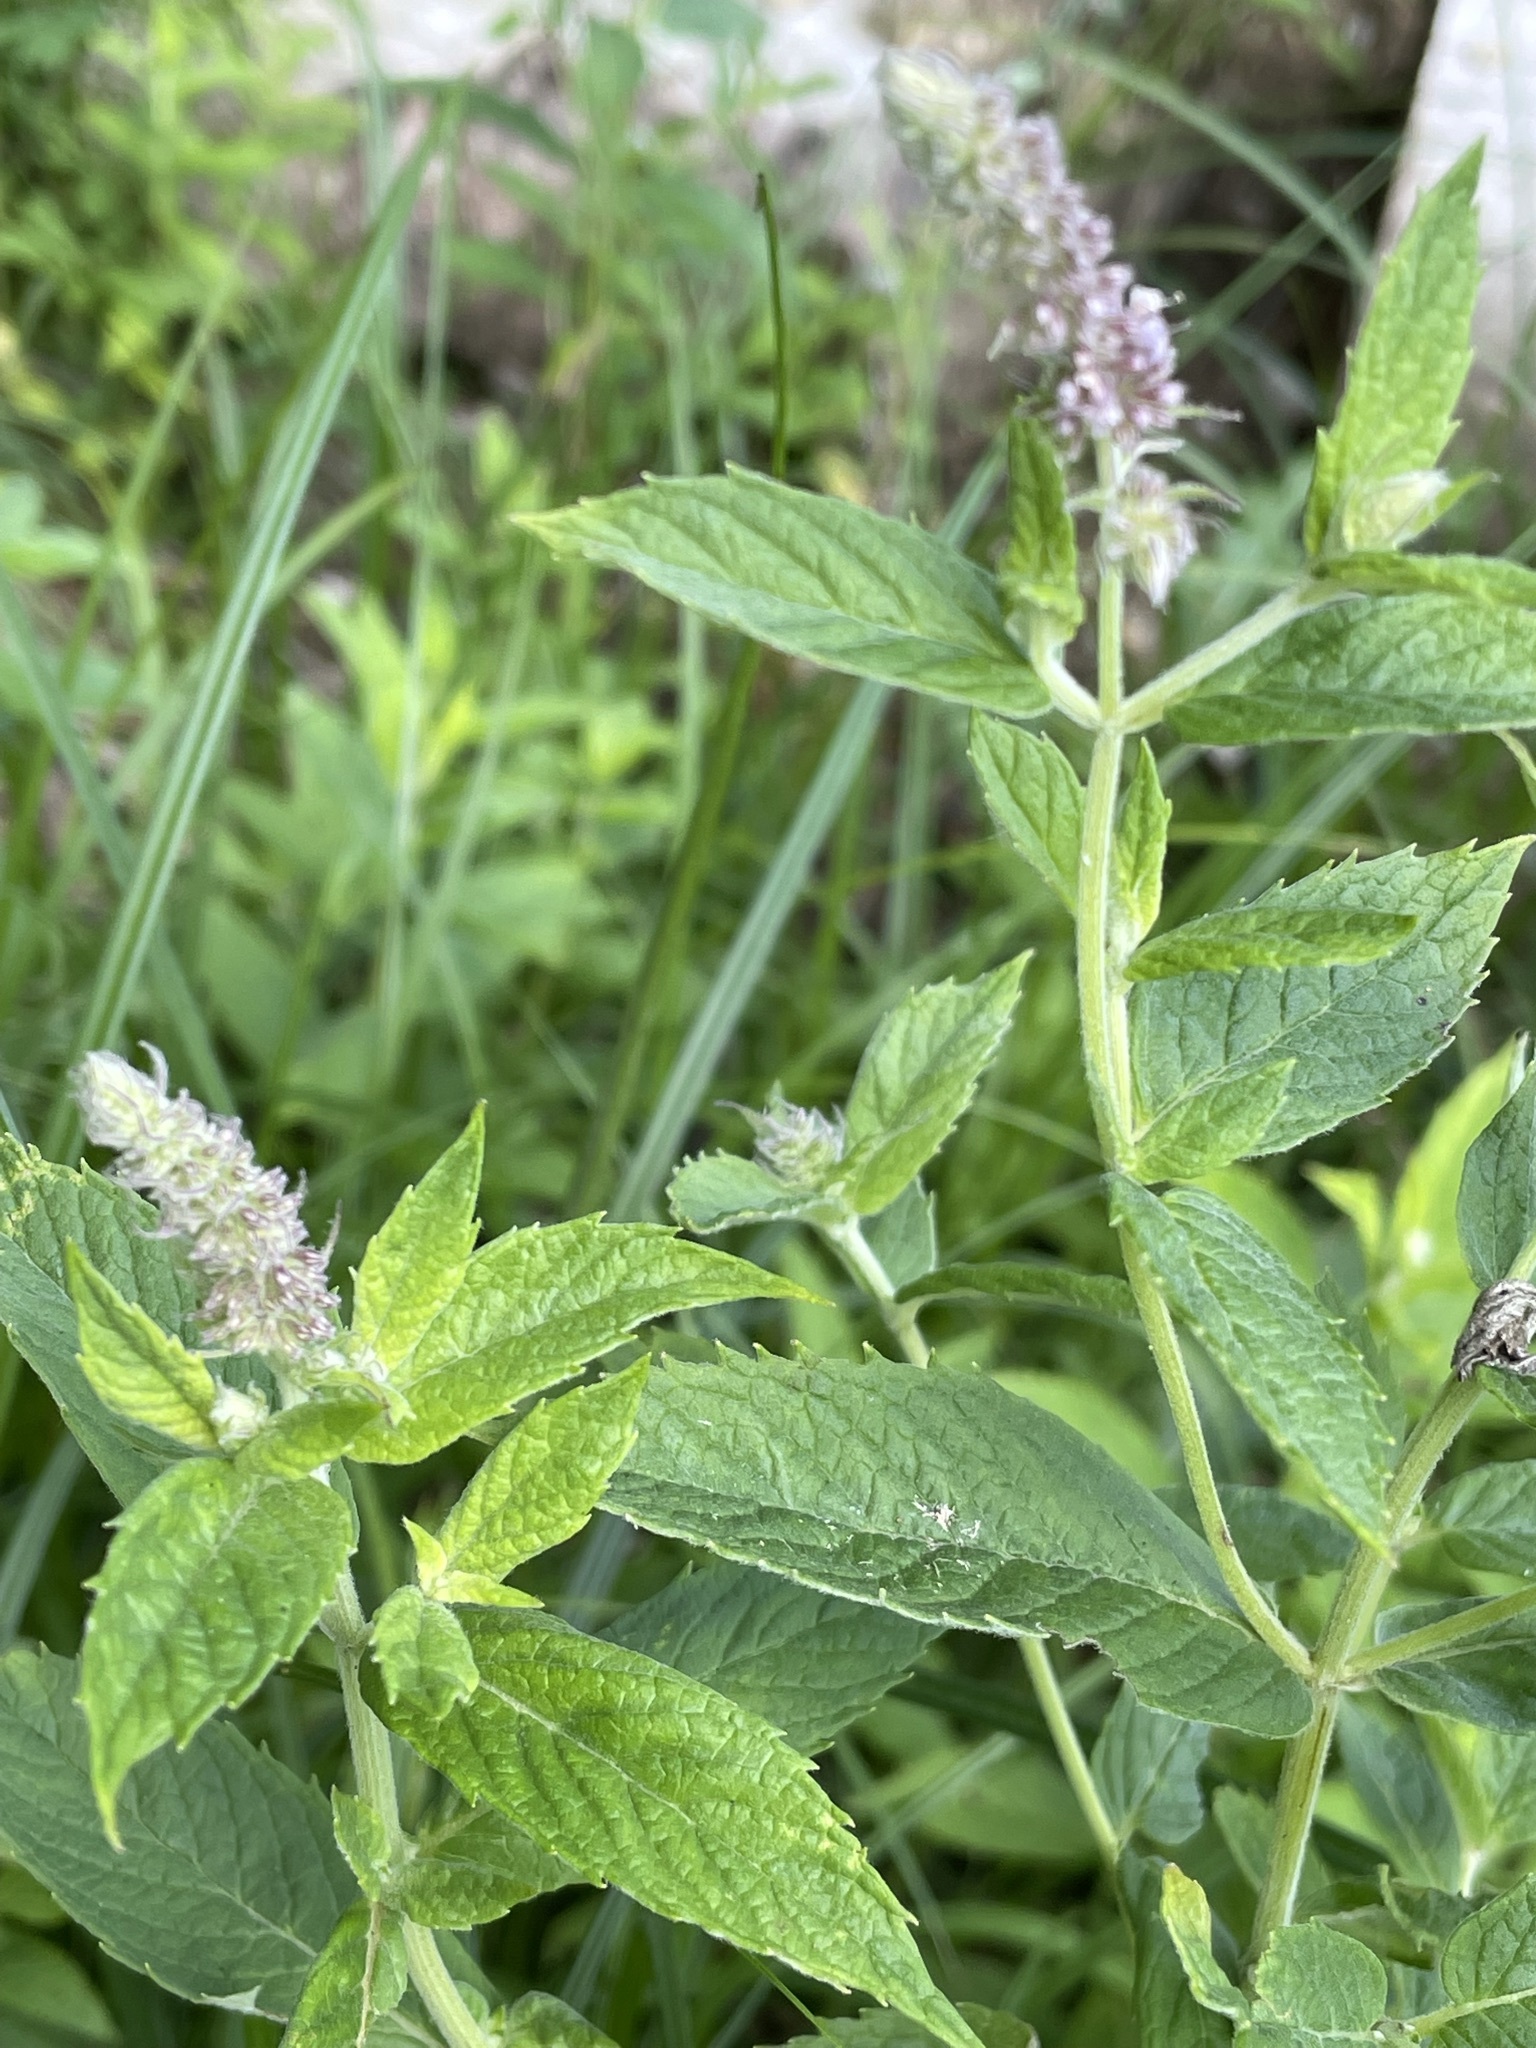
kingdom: Plantae
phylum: Tracheophyta
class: Magnoliopsida
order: Lamiales
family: Lamiaceae
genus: Mentha
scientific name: Mentha longifolia
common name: Horse mint
